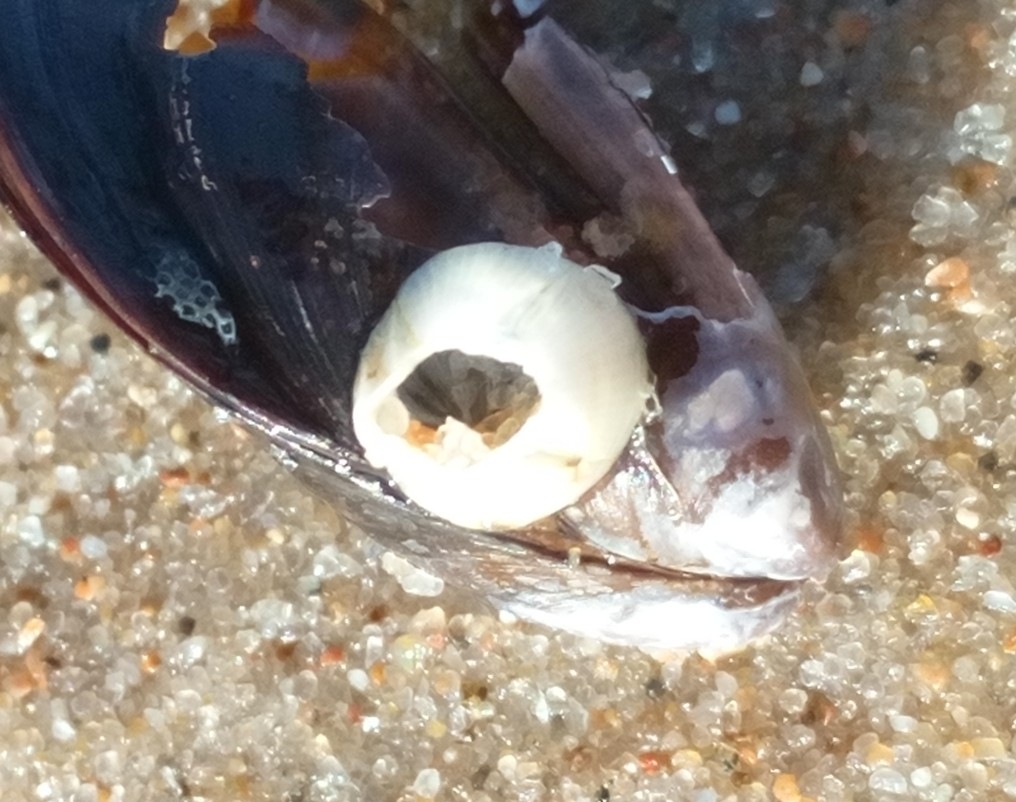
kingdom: Animalia
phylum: Arthropoda
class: Maxillopoda
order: Sessilia
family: Balanidae
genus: Amphibalanus
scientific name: Amphibalanus improvisus
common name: Bay barnacle
